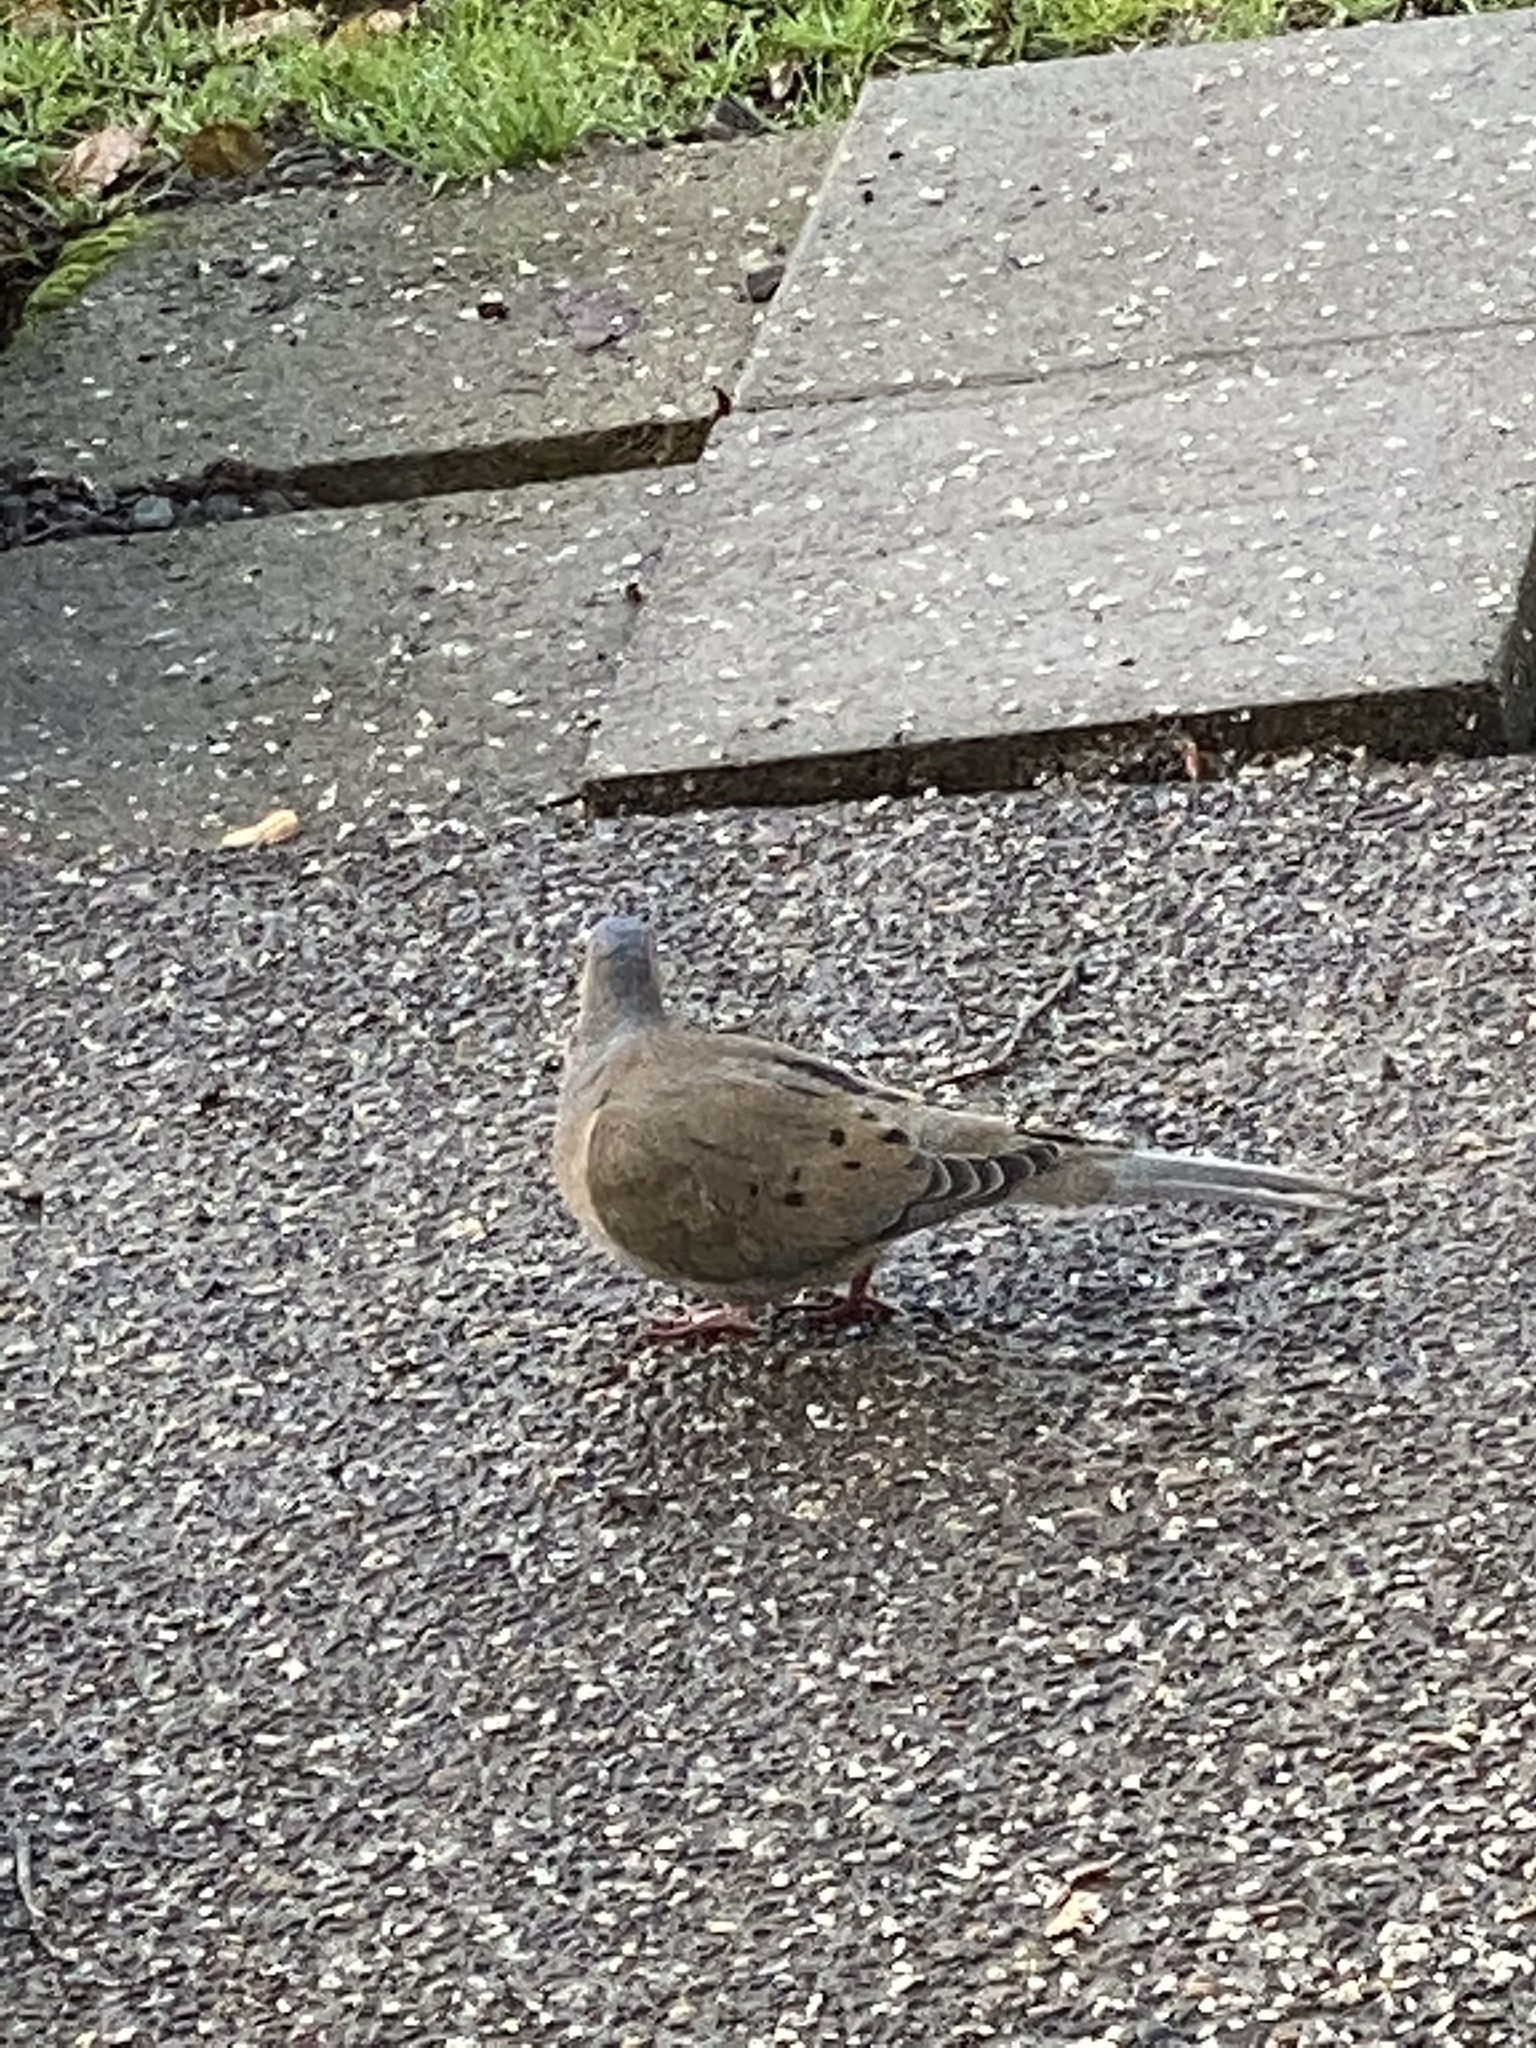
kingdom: Animalia
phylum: Chordata
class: Aves
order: Columbiformes
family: Columbidae
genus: Zenaida
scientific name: Zenaida macroura
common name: Mourning dove
